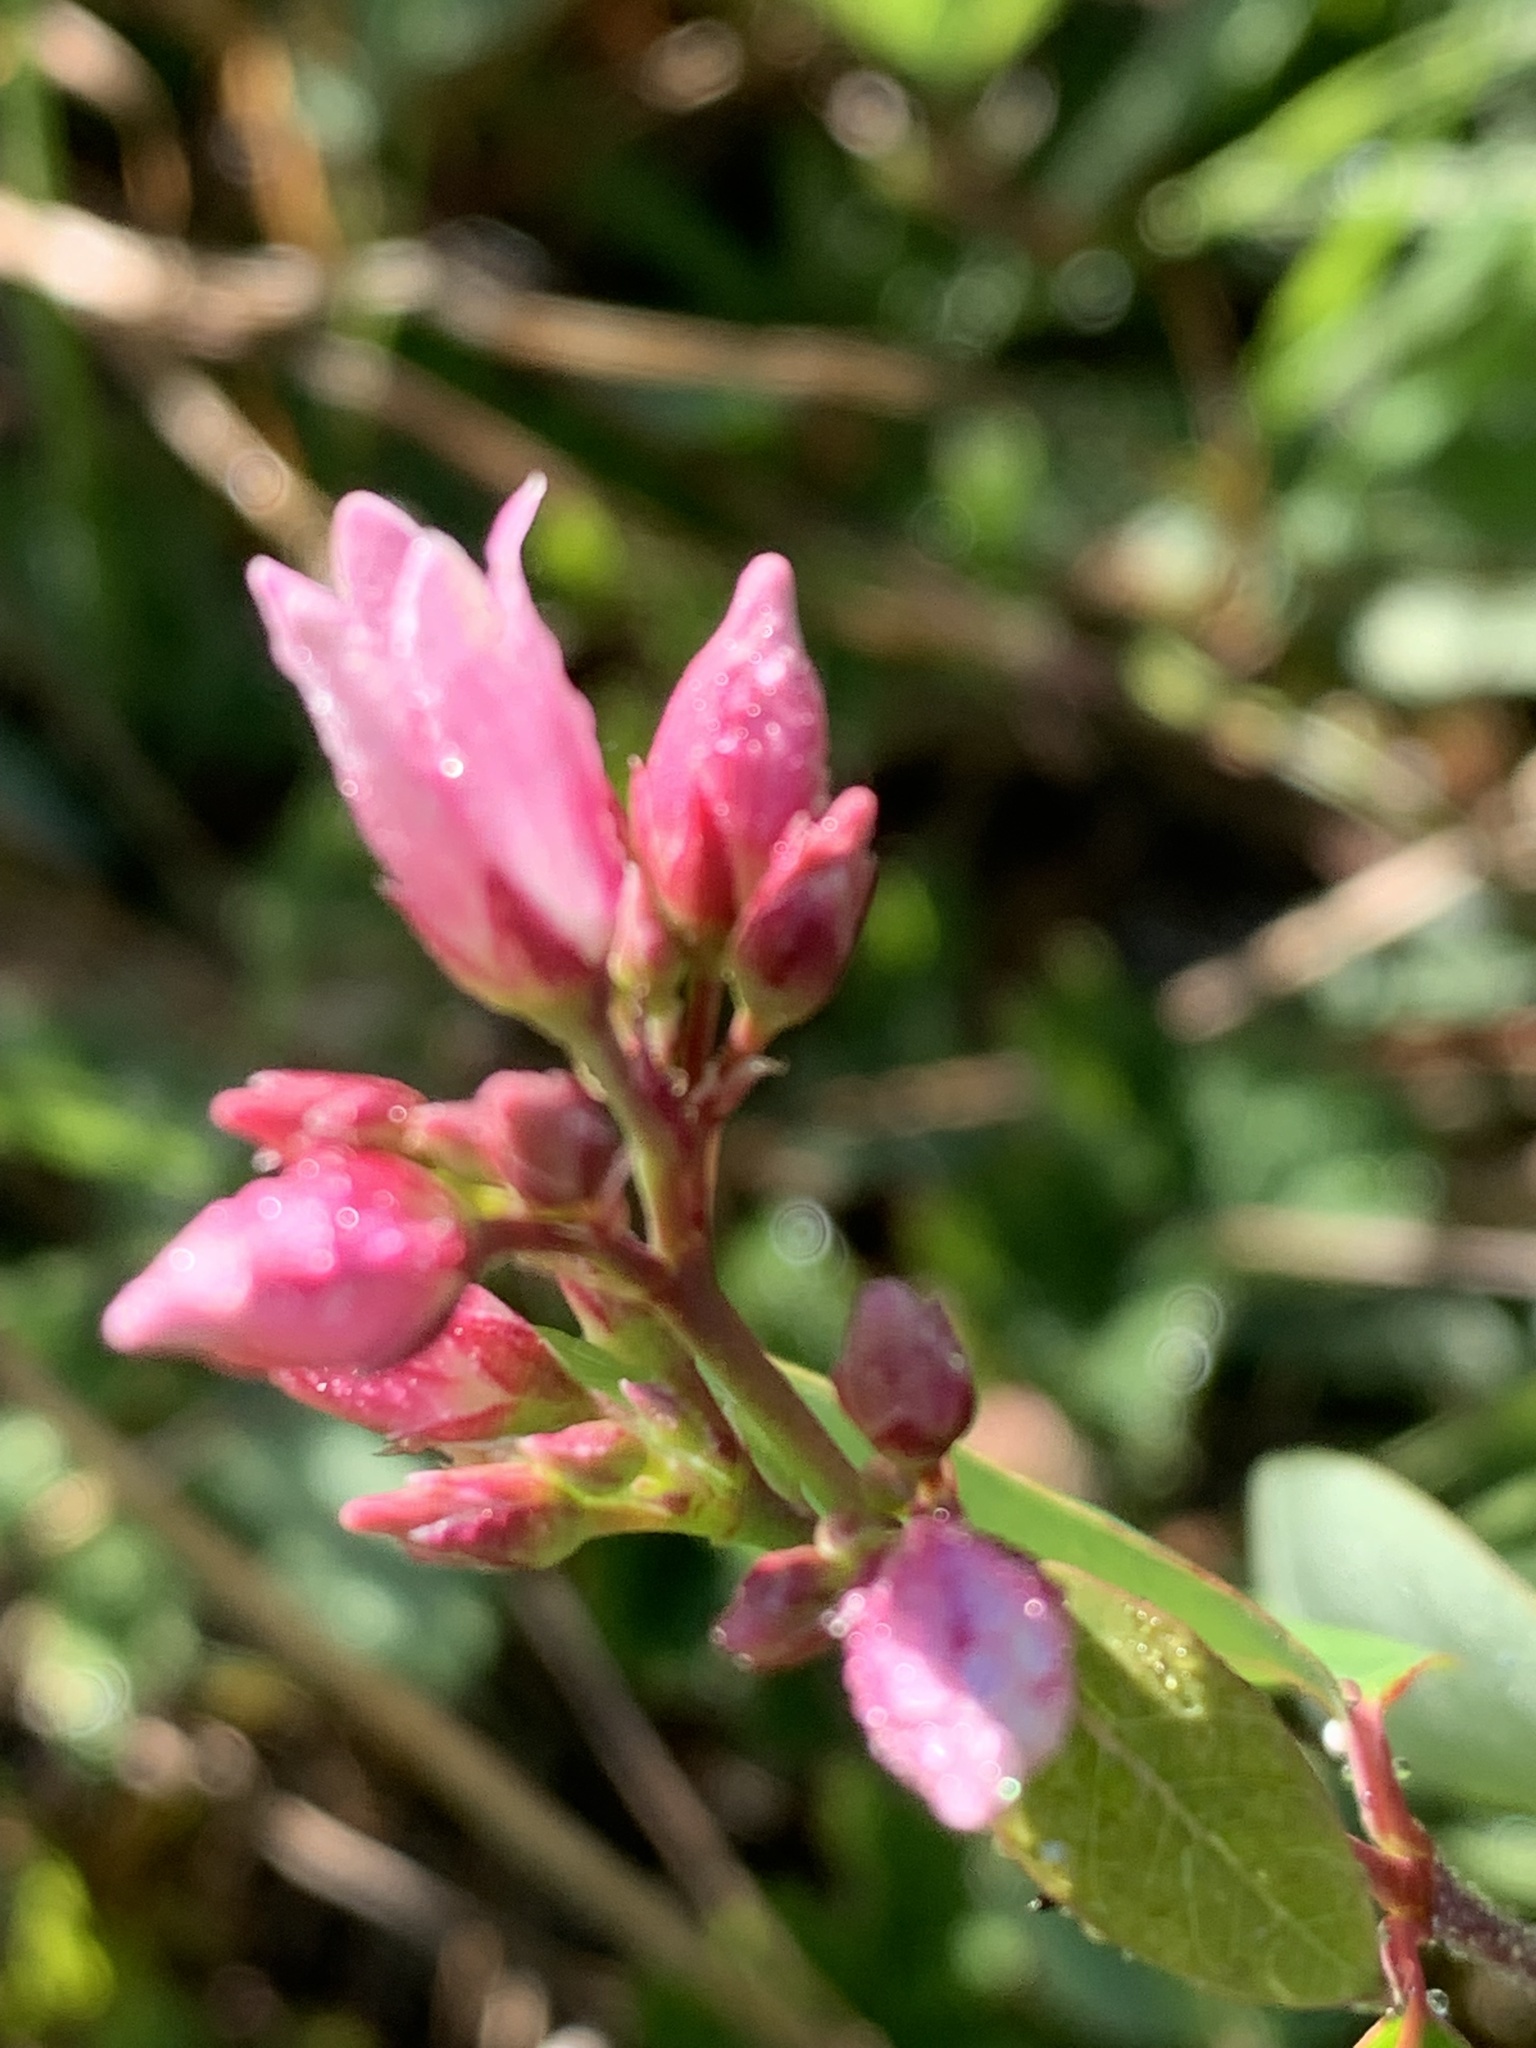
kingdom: Plantae
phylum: Tracheophyta
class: Magnoliopsida
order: Gentianales
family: Apocynaceae
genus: Apocynum
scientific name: Apocynum androsaemifolium
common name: Spreading dogbane
